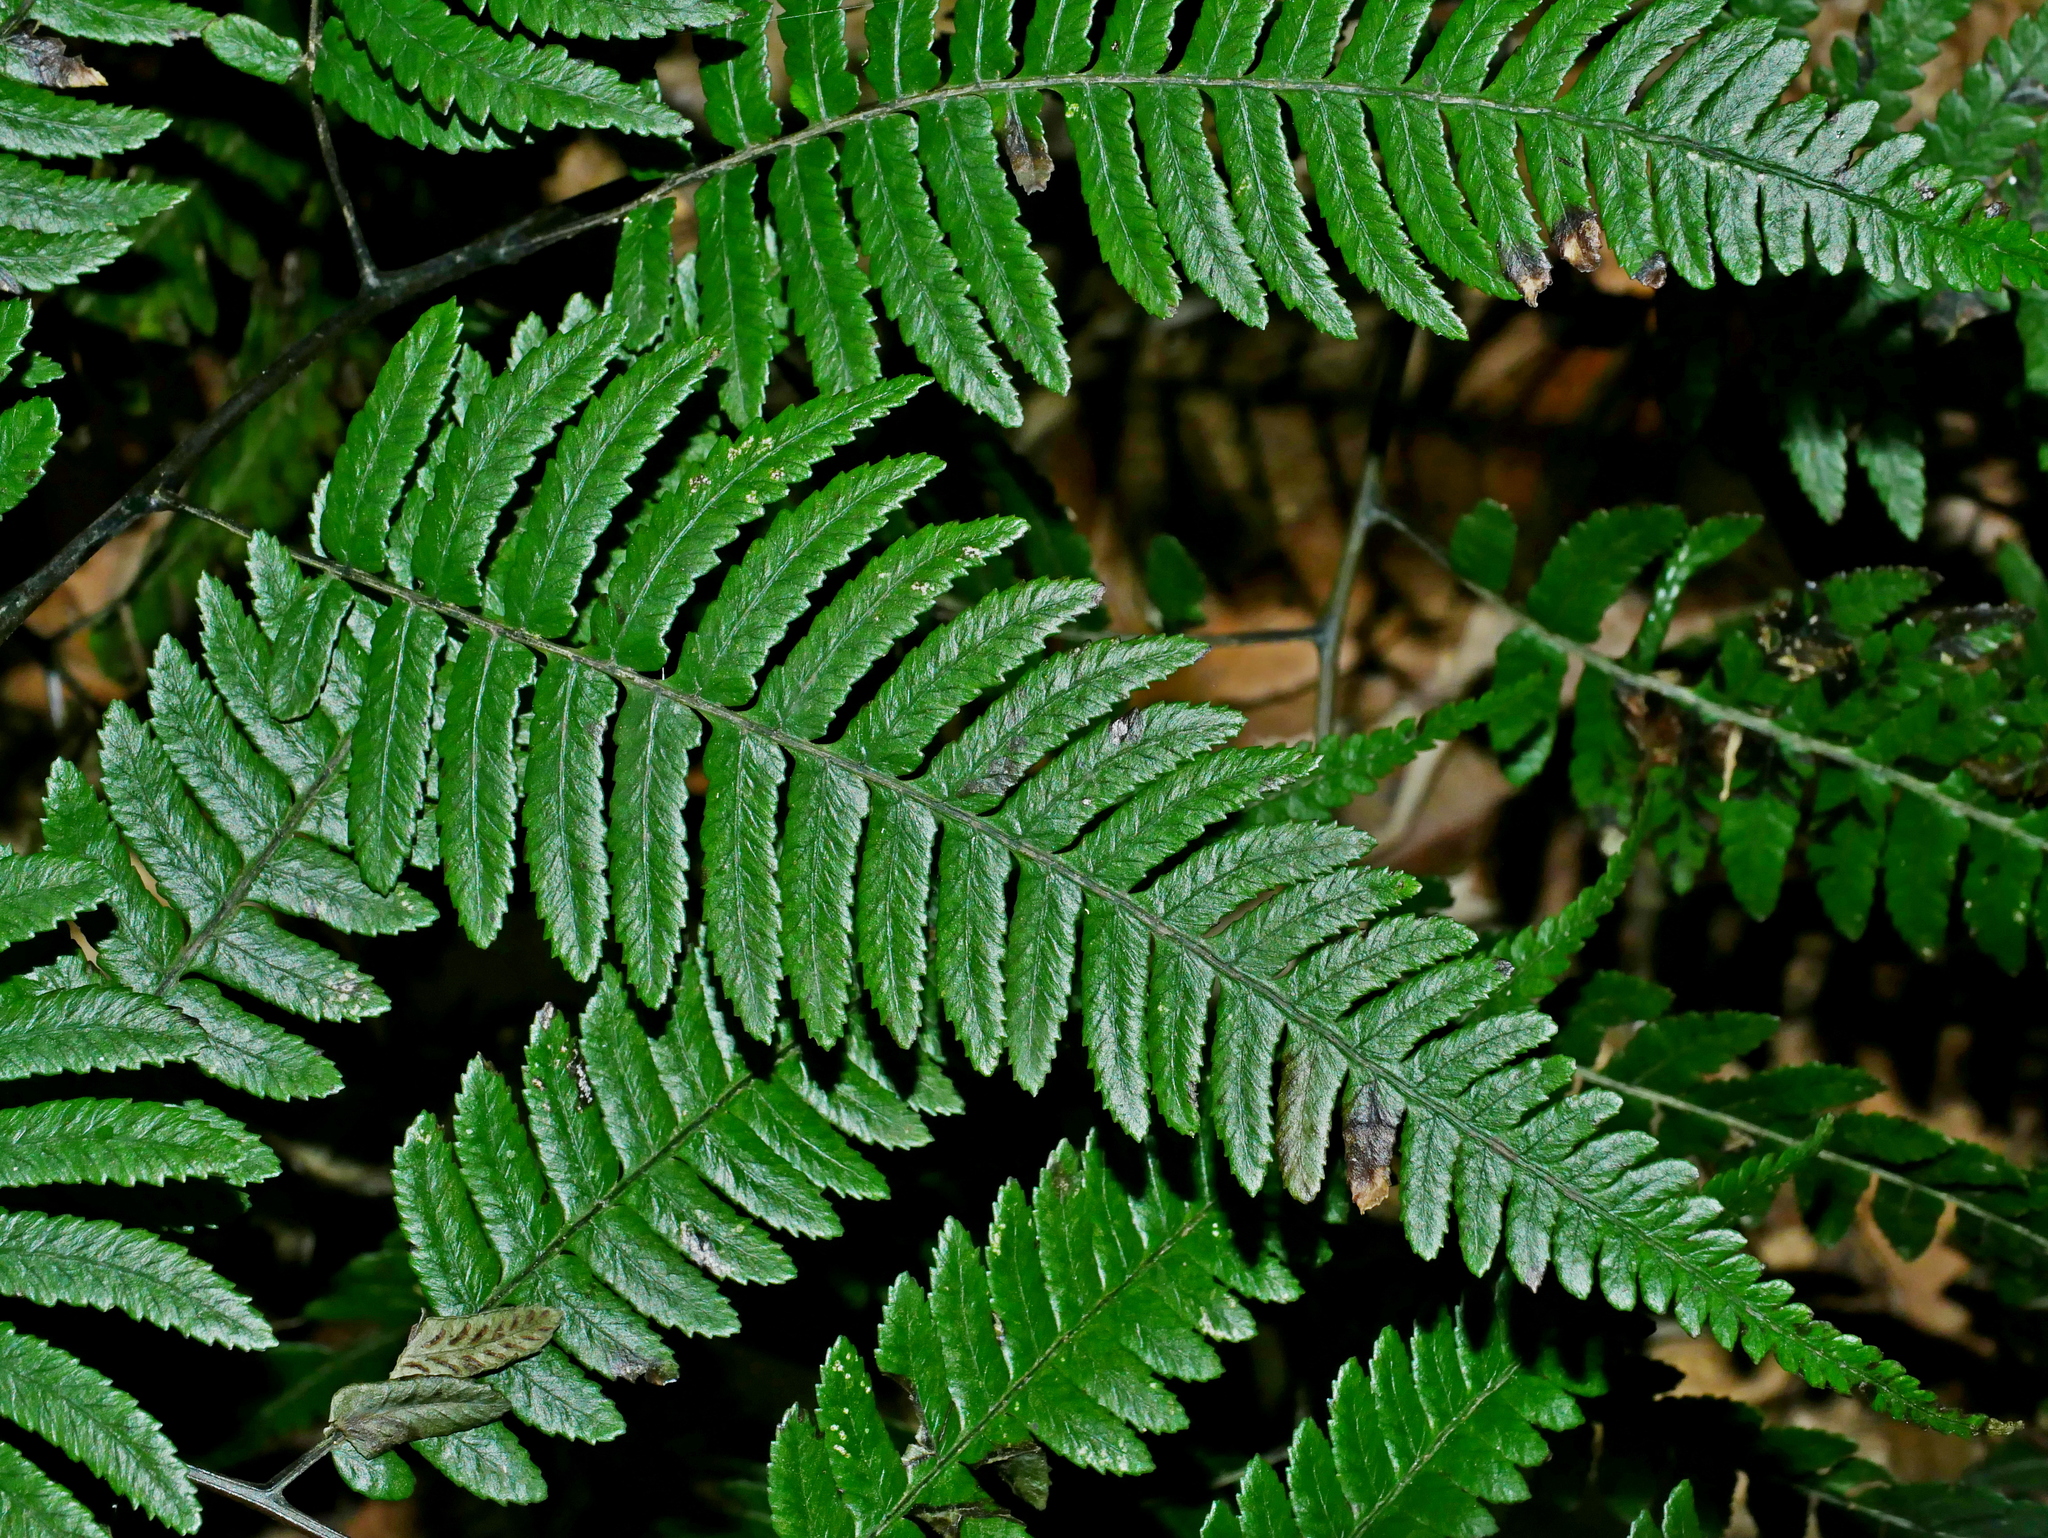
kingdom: Plantae
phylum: Tracheophyta
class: Polypodiopsida
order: Polypodiales
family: Athyriaceae
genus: Diplazium
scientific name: Diplazium petri
